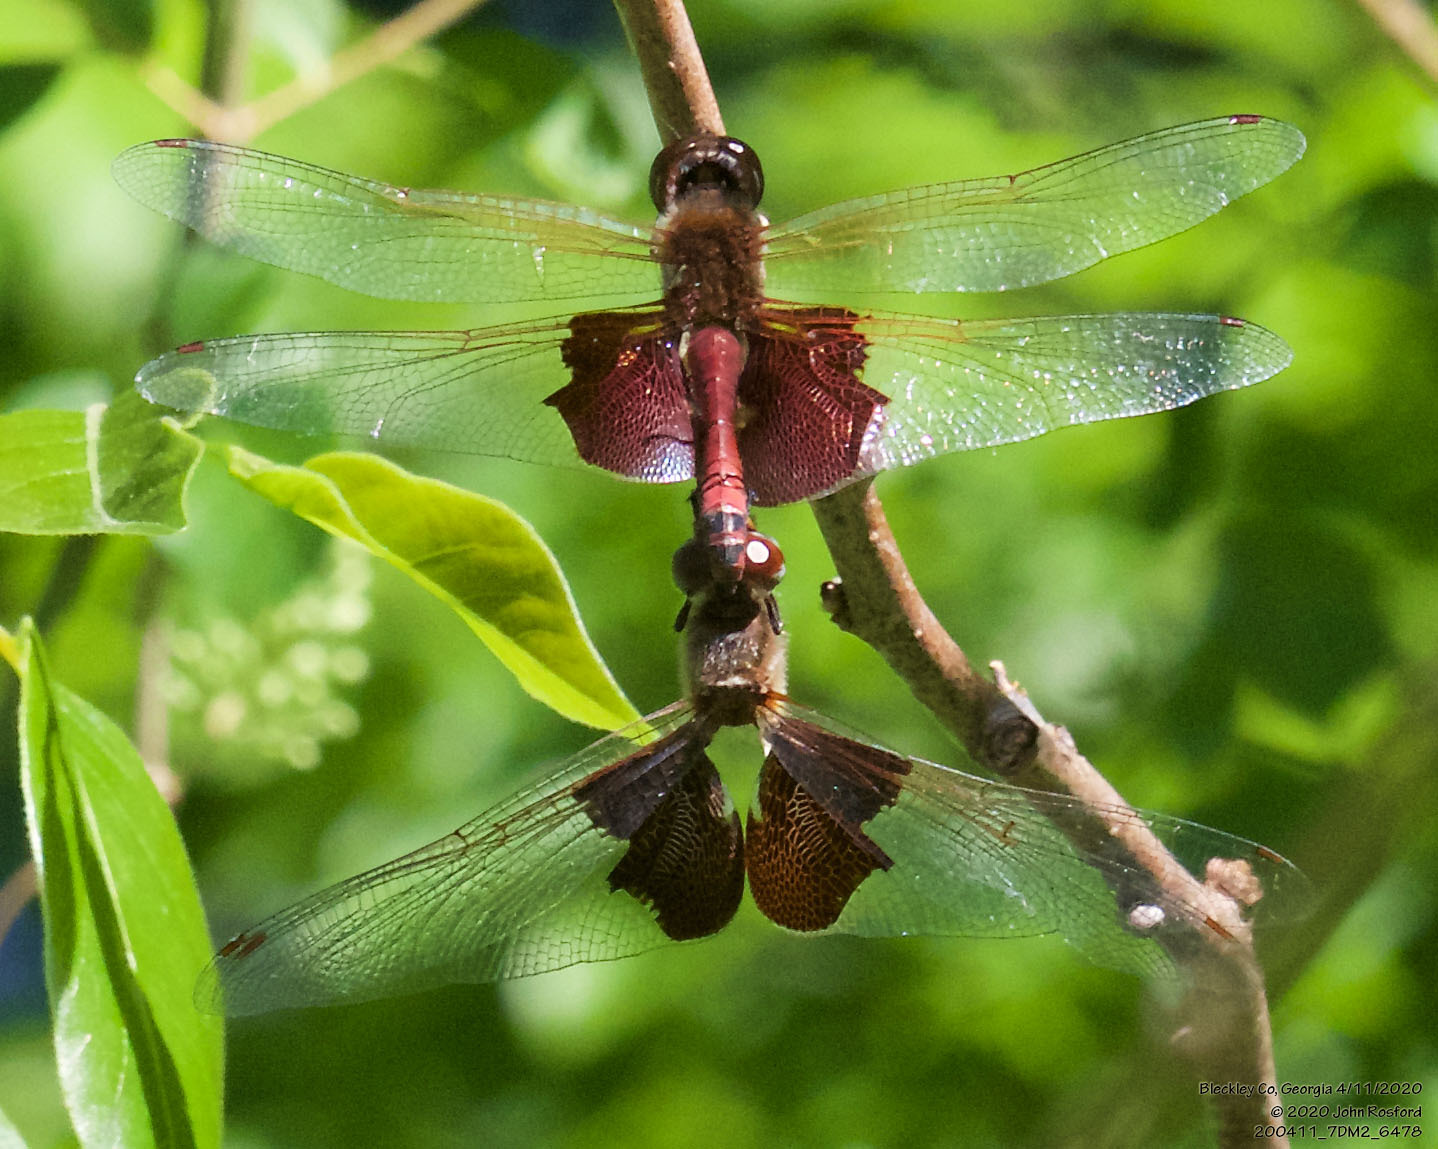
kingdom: Animalia
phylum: Arthropoda
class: Insecta
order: Odonata
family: Libellulidae
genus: Tramea
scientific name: Tramea carolina
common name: Carolina saddlebags
